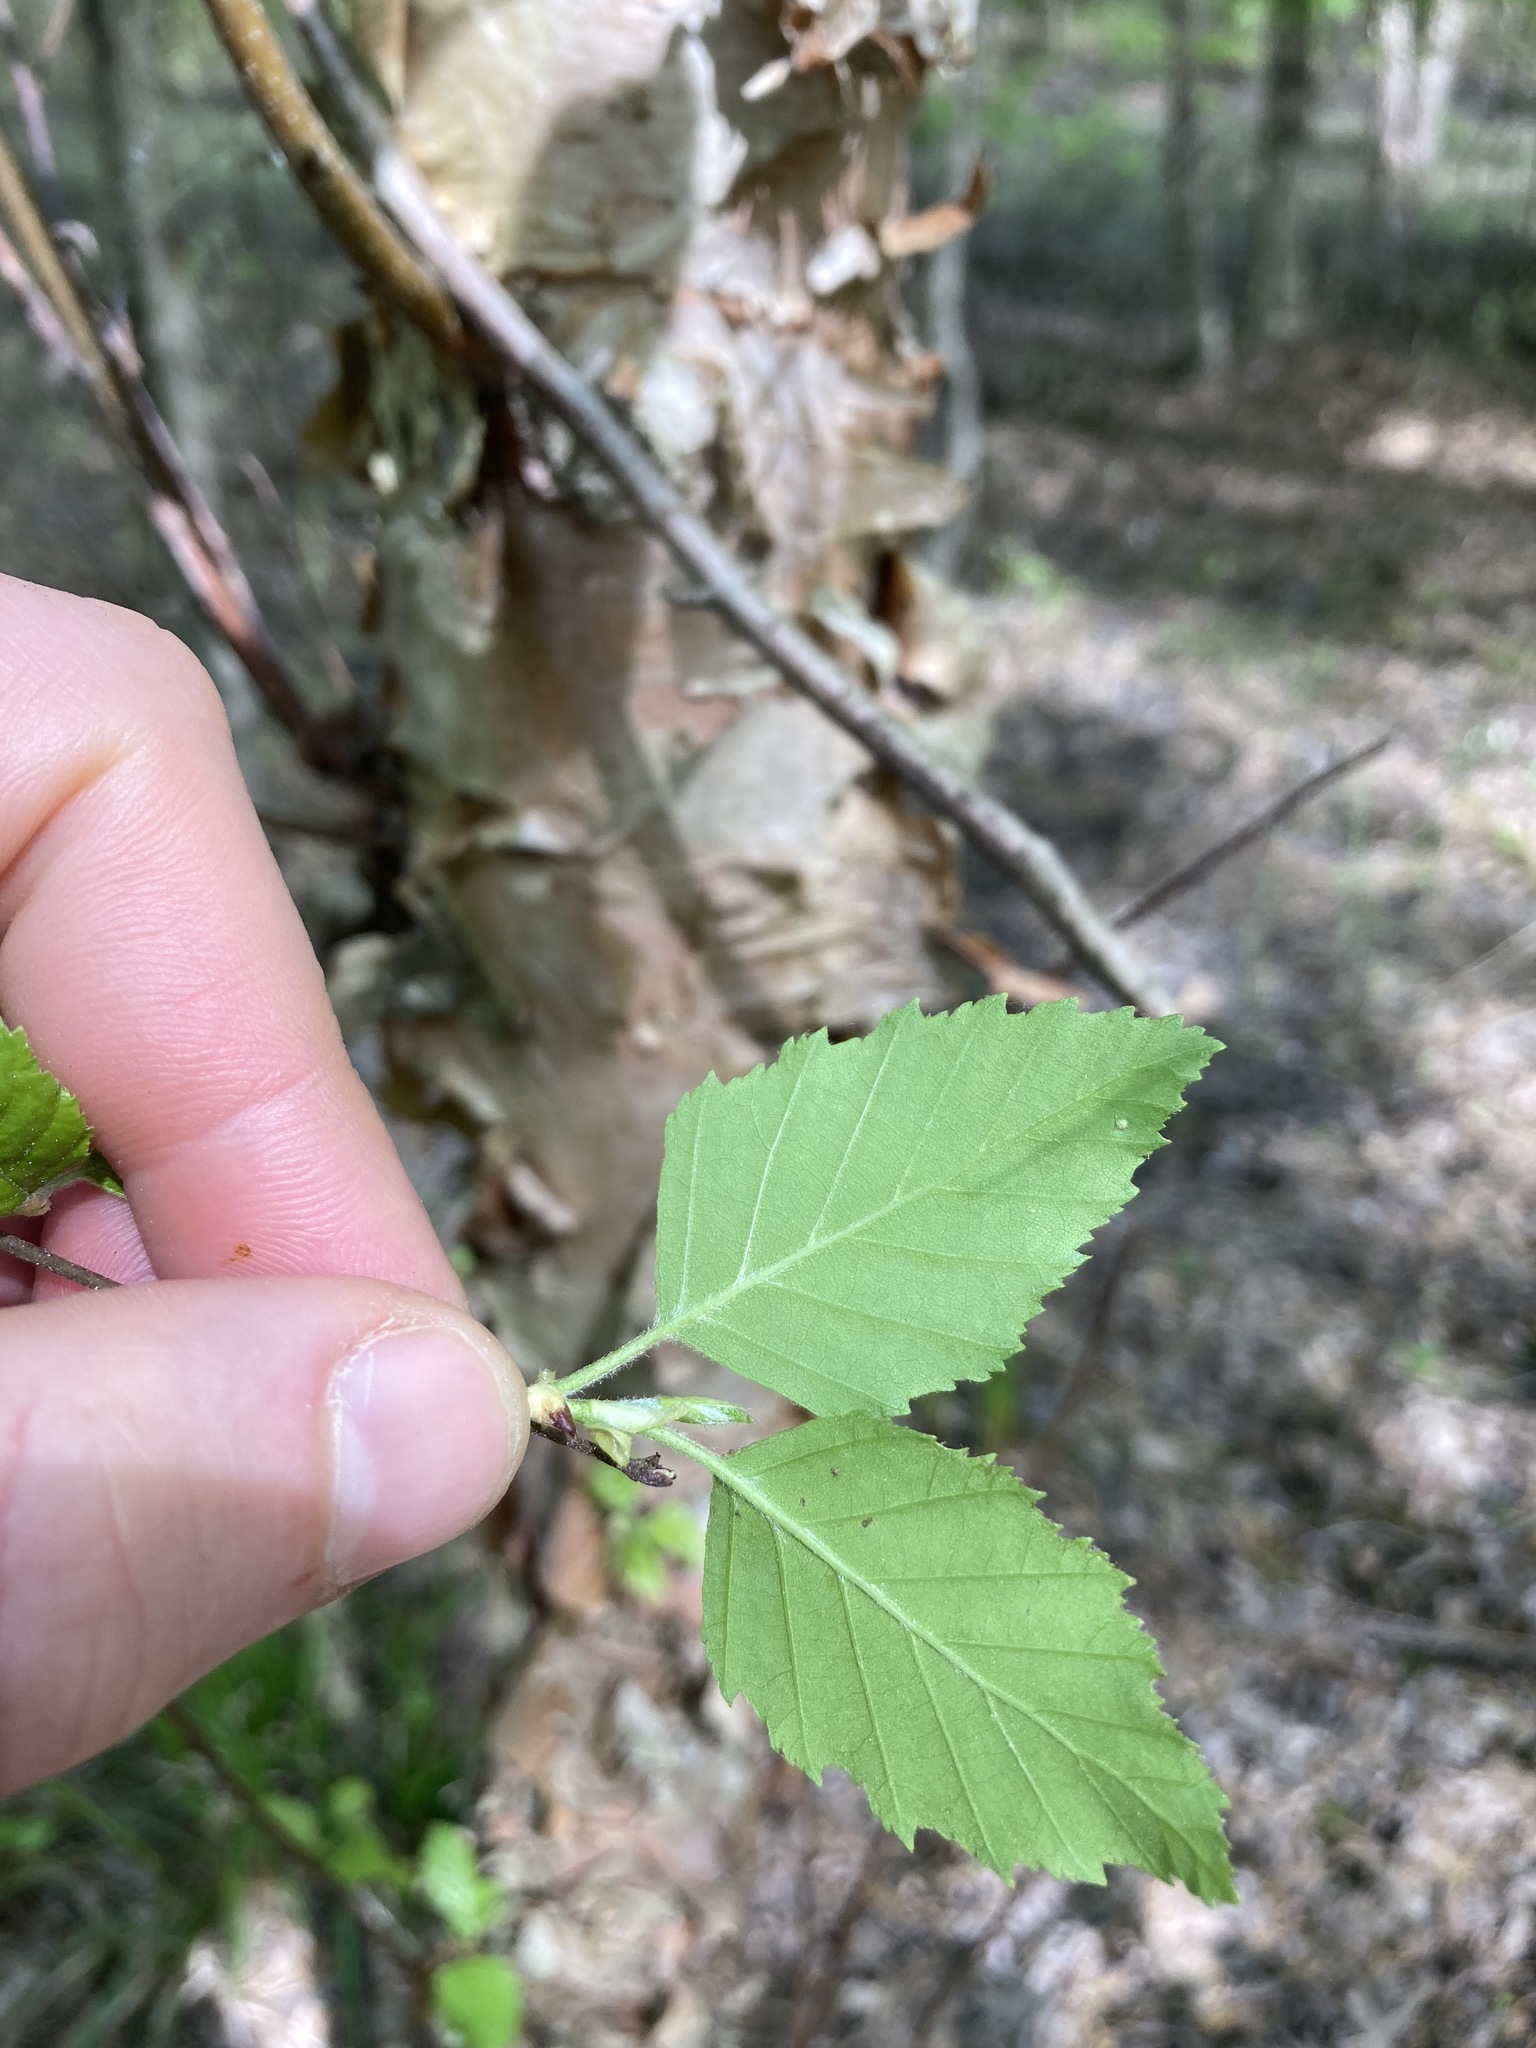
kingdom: Plantae
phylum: Tracheophyta
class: Magnoliopsida
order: Fagales
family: Betulaceae
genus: Betula
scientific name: Betula nigra
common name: Black birch
